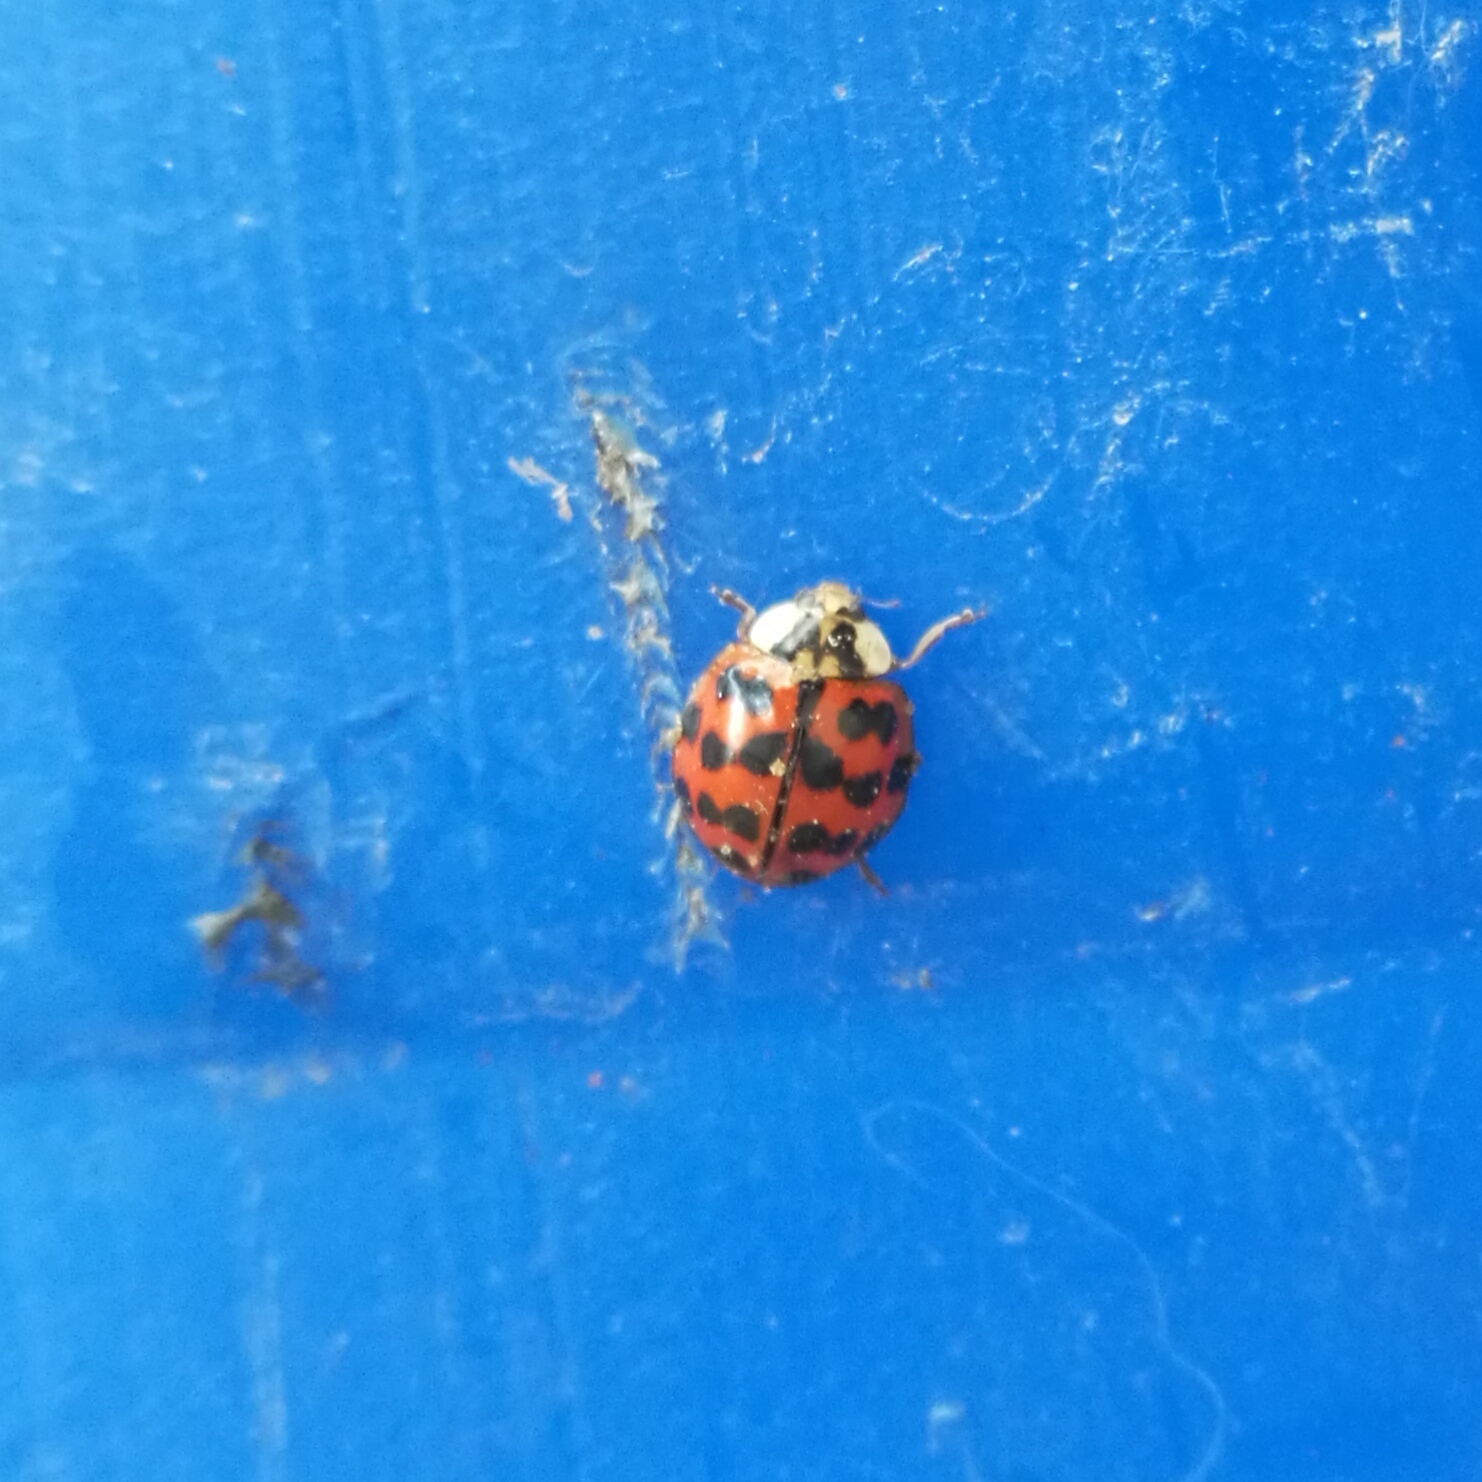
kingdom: Animalia
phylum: Arthropoda
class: Insecta
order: Coleoptera
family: Coccinellidae
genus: Harmonia
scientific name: Harmonia axyridis
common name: Harlequin ladybird
